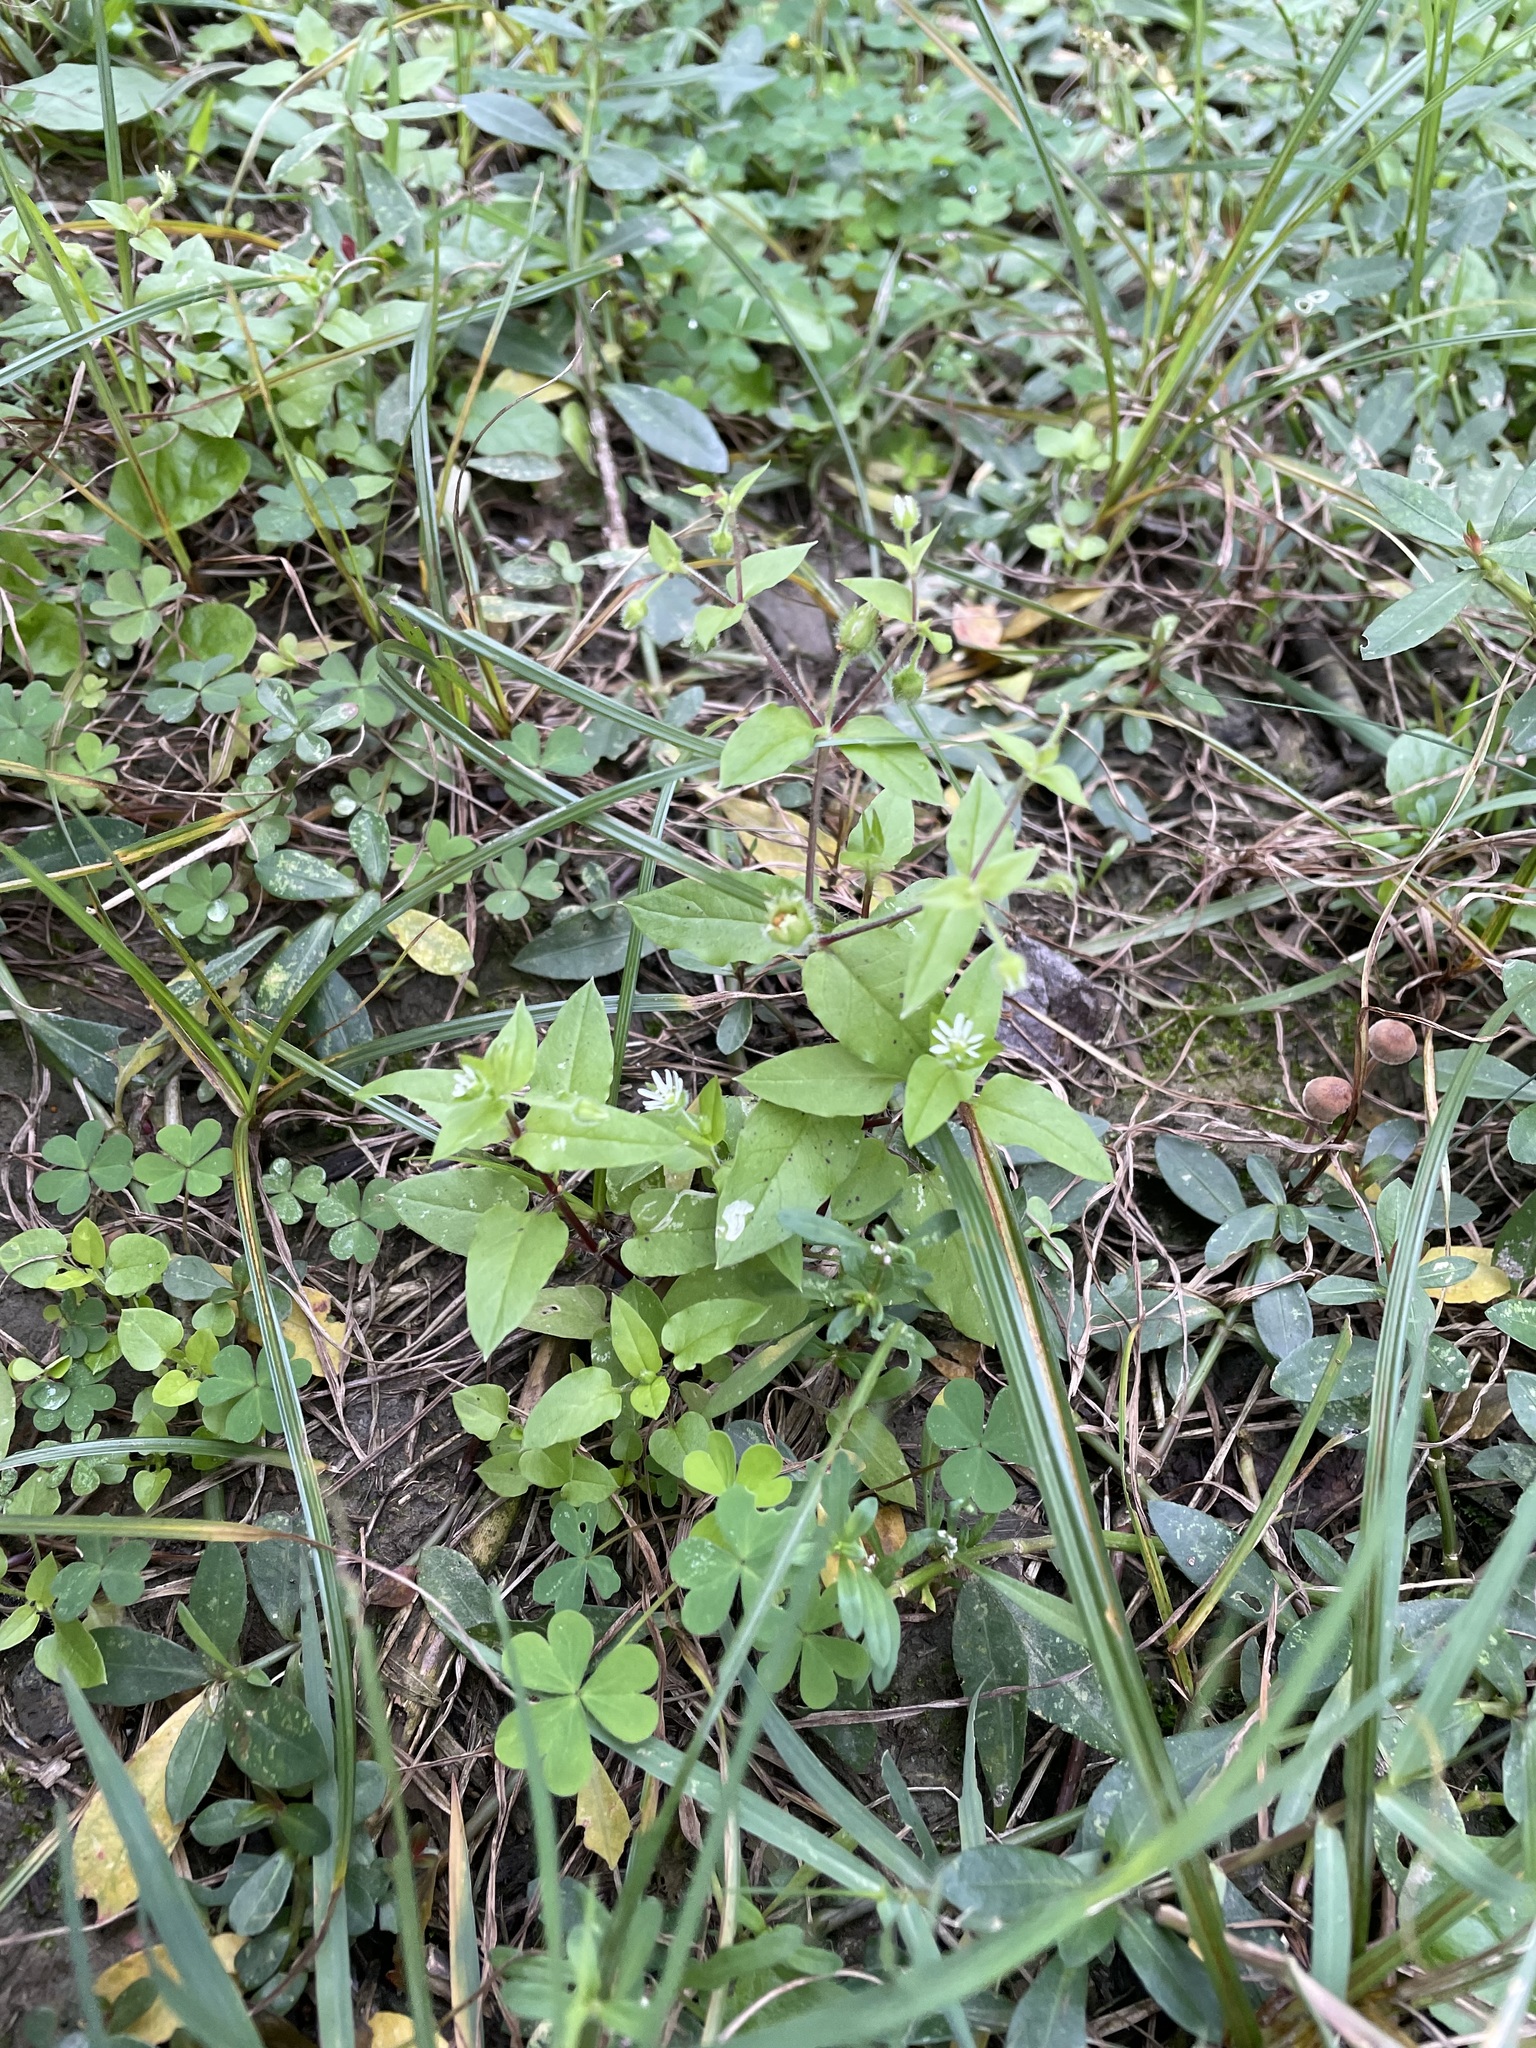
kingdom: Plantae
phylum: Tracheophyta
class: Magnoliopsida
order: Caryophyllales
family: Caryophyllaceae
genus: Stellaria
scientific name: Stellaria aquatica
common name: Water chickweed
